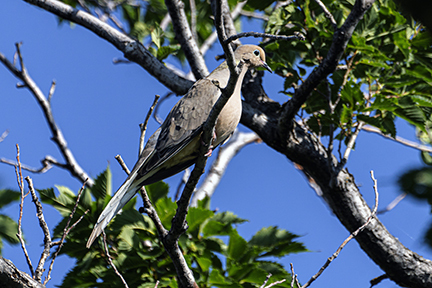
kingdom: Animalia
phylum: Chordata
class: Aves
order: Columbiformes
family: Columbidae
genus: Zenaida
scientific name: Zenaida macroura
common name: Mourning dove
